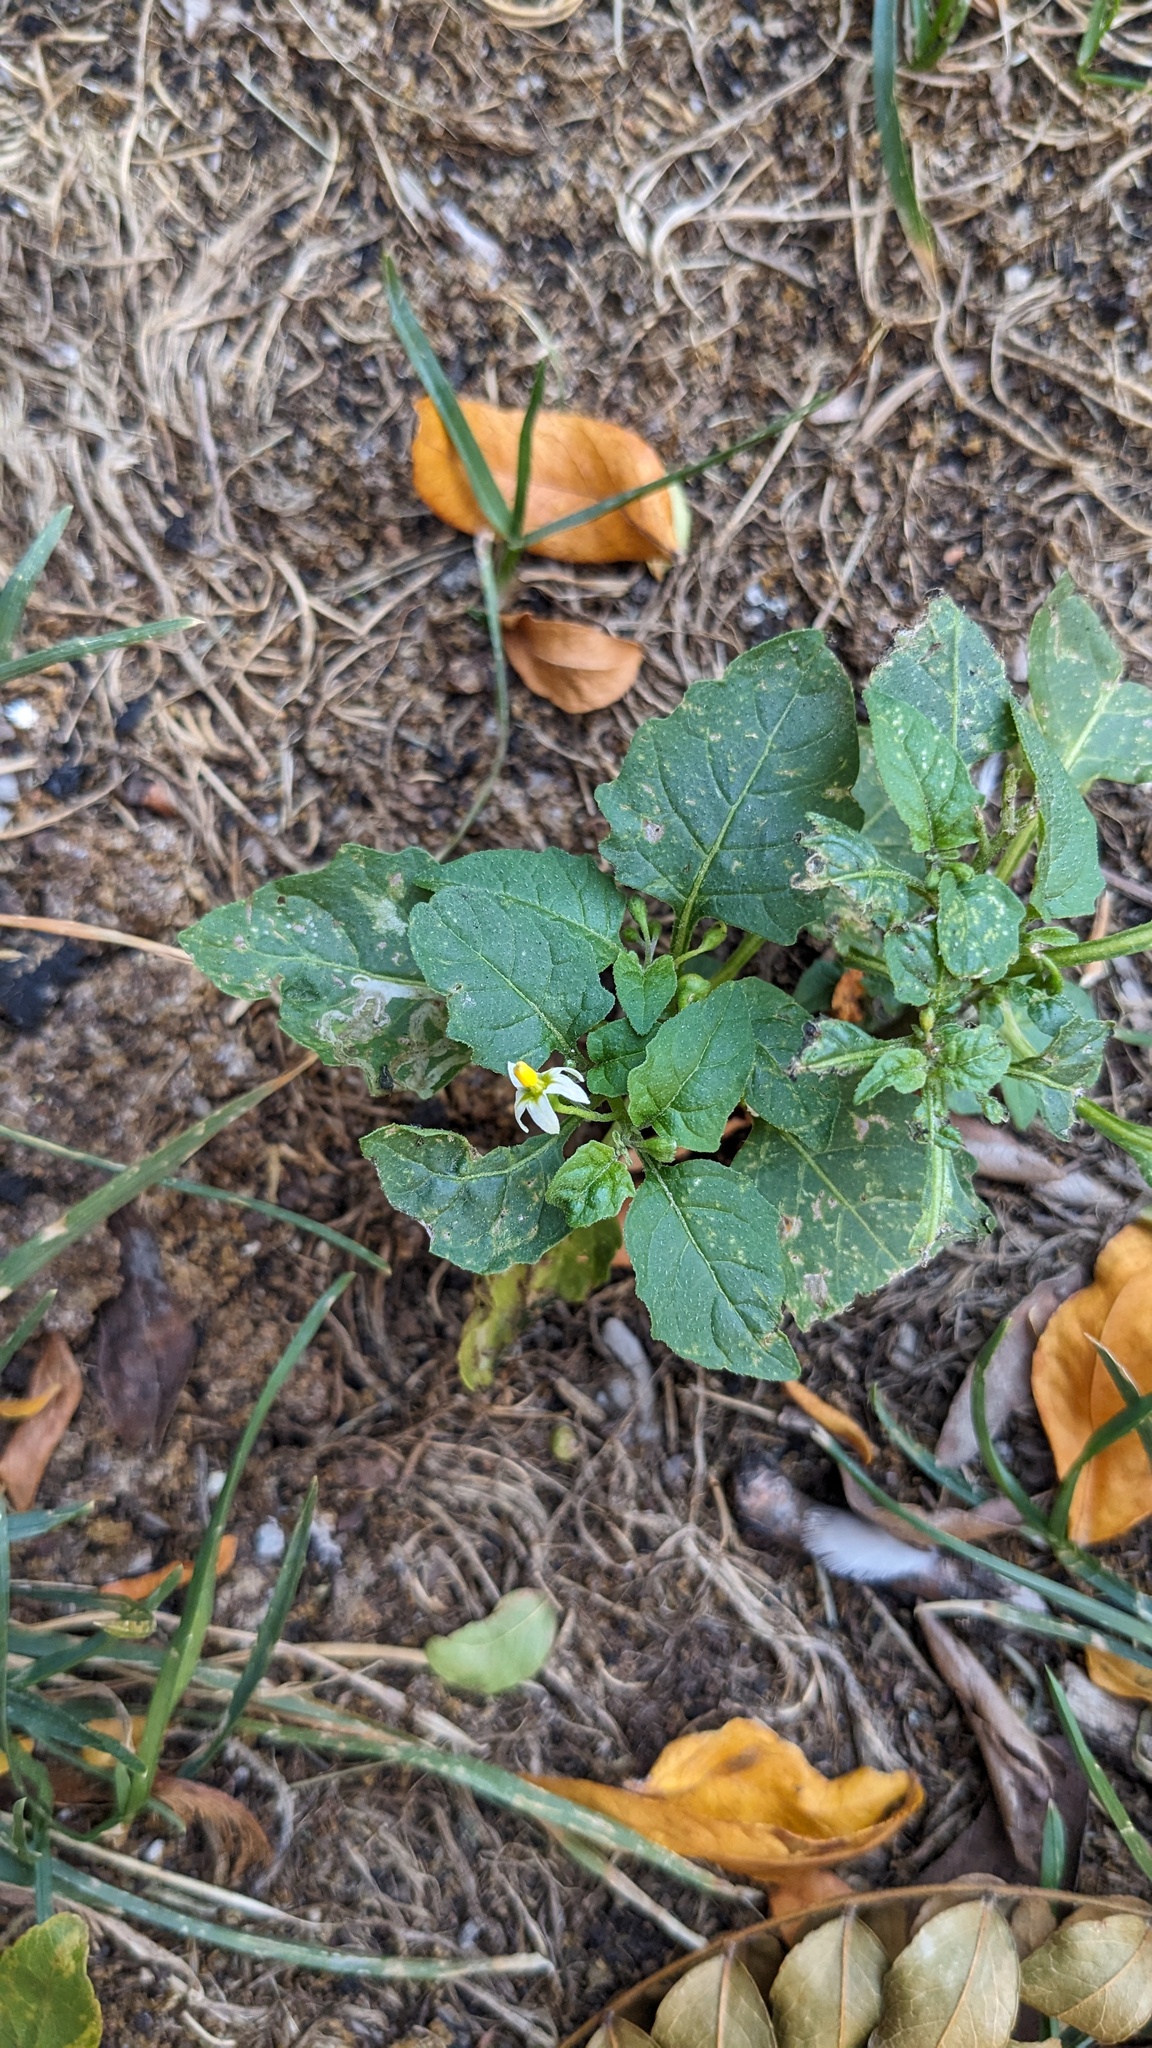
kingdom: Plantae
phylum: Tracheophyta
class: Magnoliopsida
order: Solanales
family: Solanaceae
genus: Solanum
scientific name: Solanum emulans
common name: Eastern black nightshade
